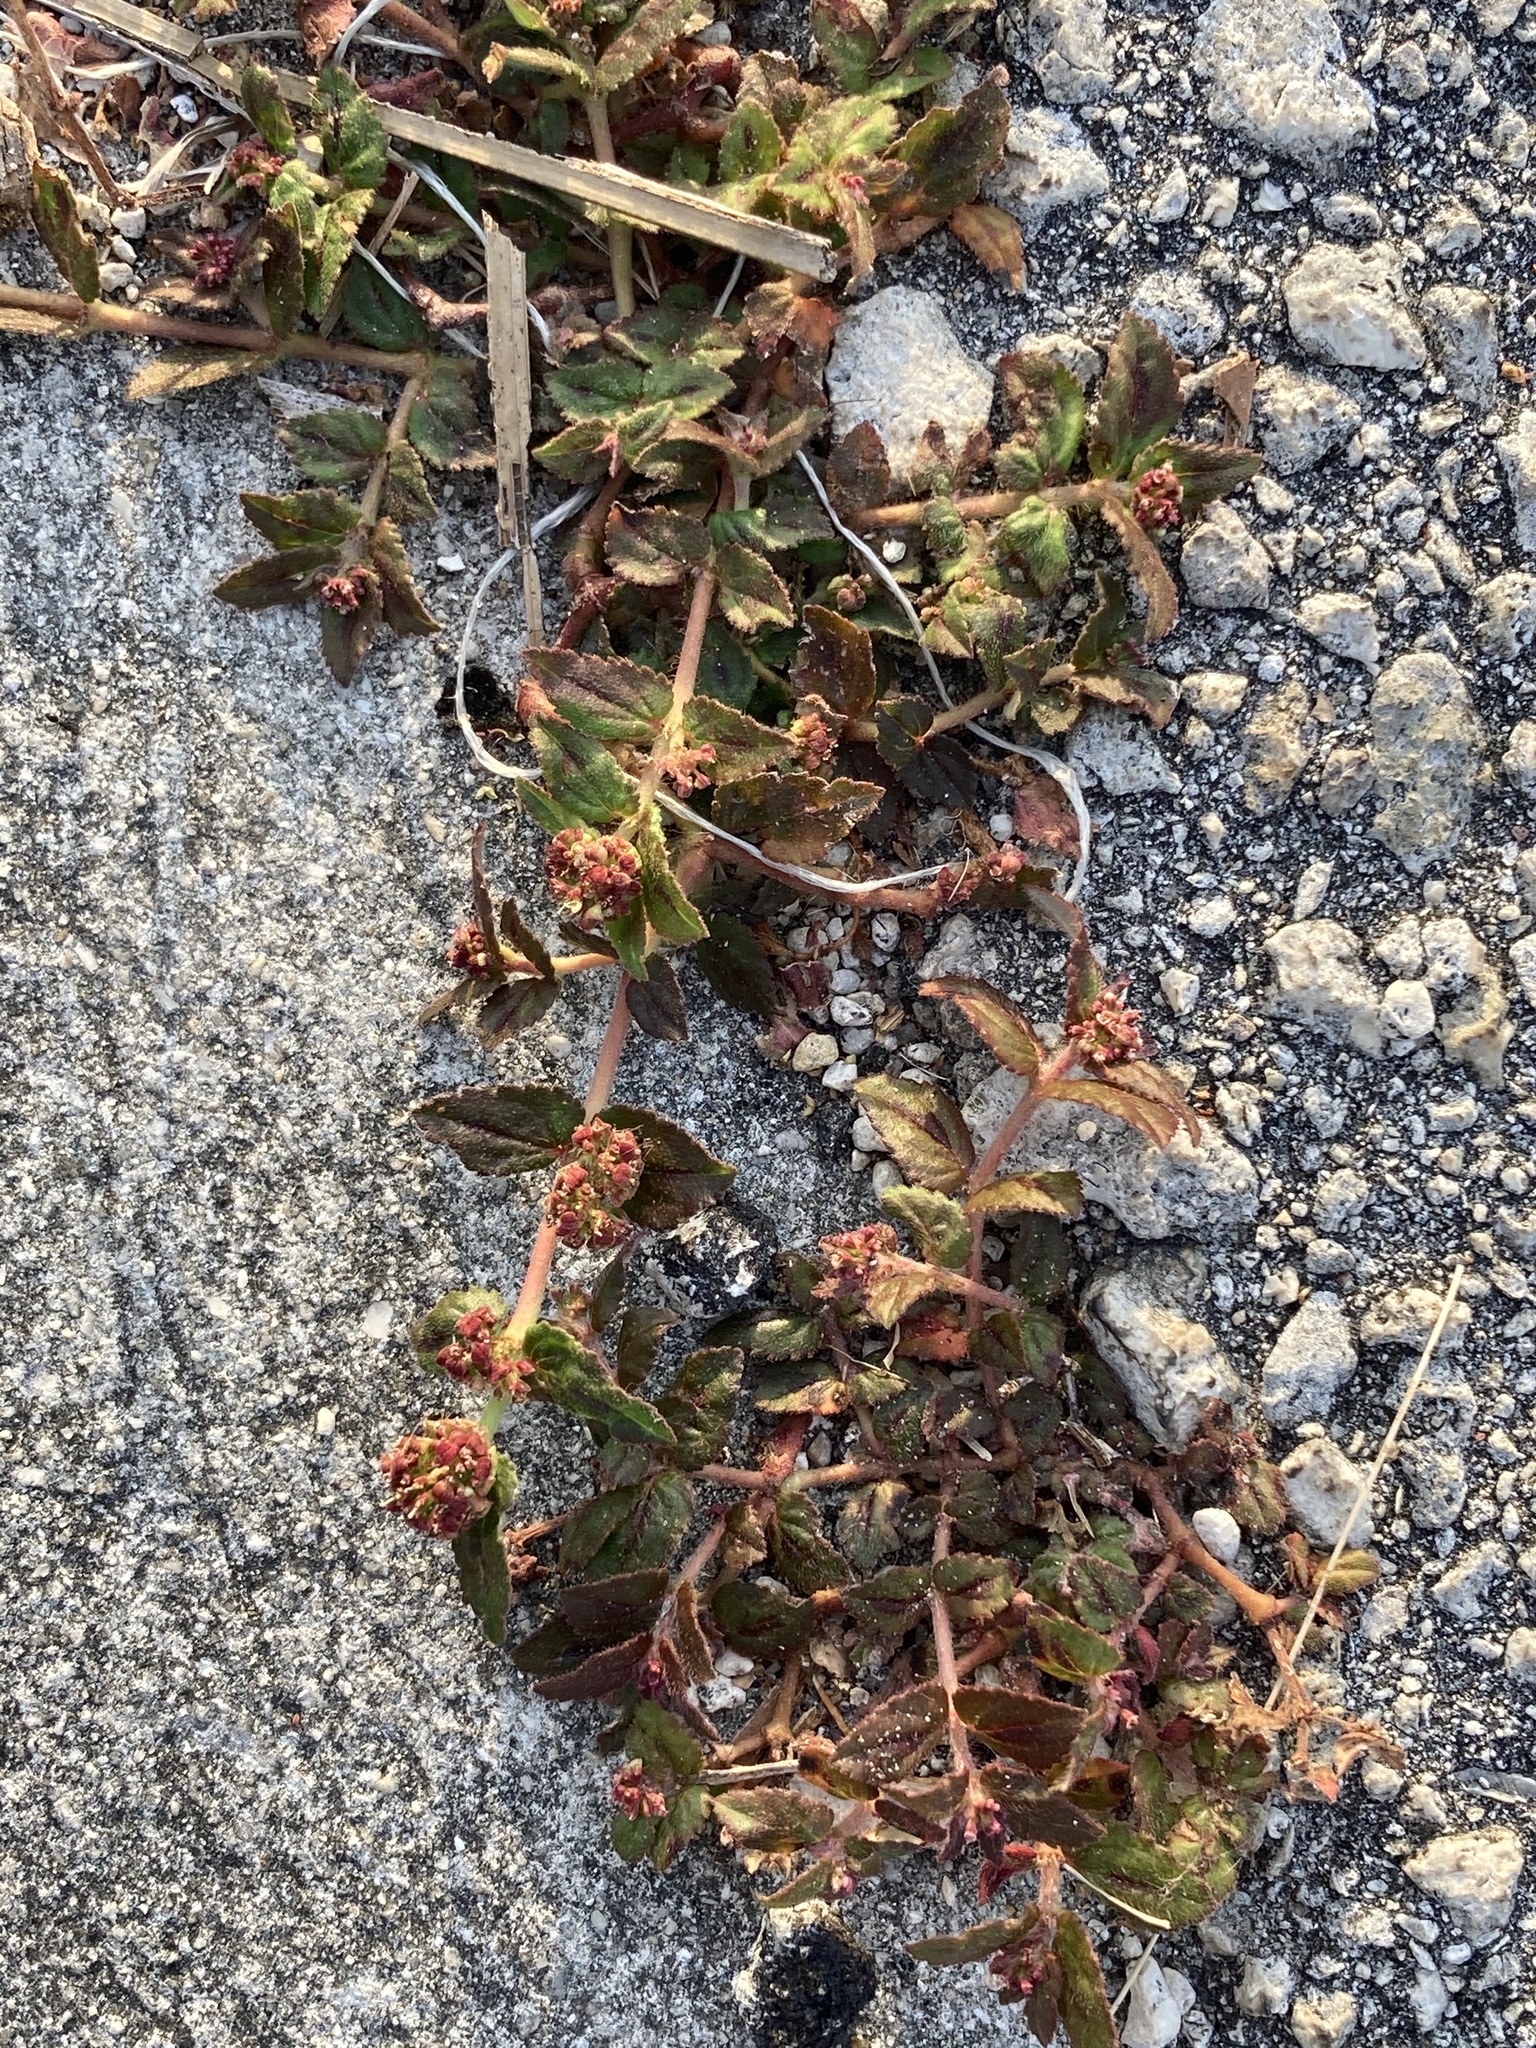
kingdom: Plantae
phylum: Tracheophyta
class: Magnoliopsida
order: Malpighiales
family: Euphorbiaceae
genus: Euphorbia
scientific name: Euphorbia hirta
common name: Pillpod sandmat
